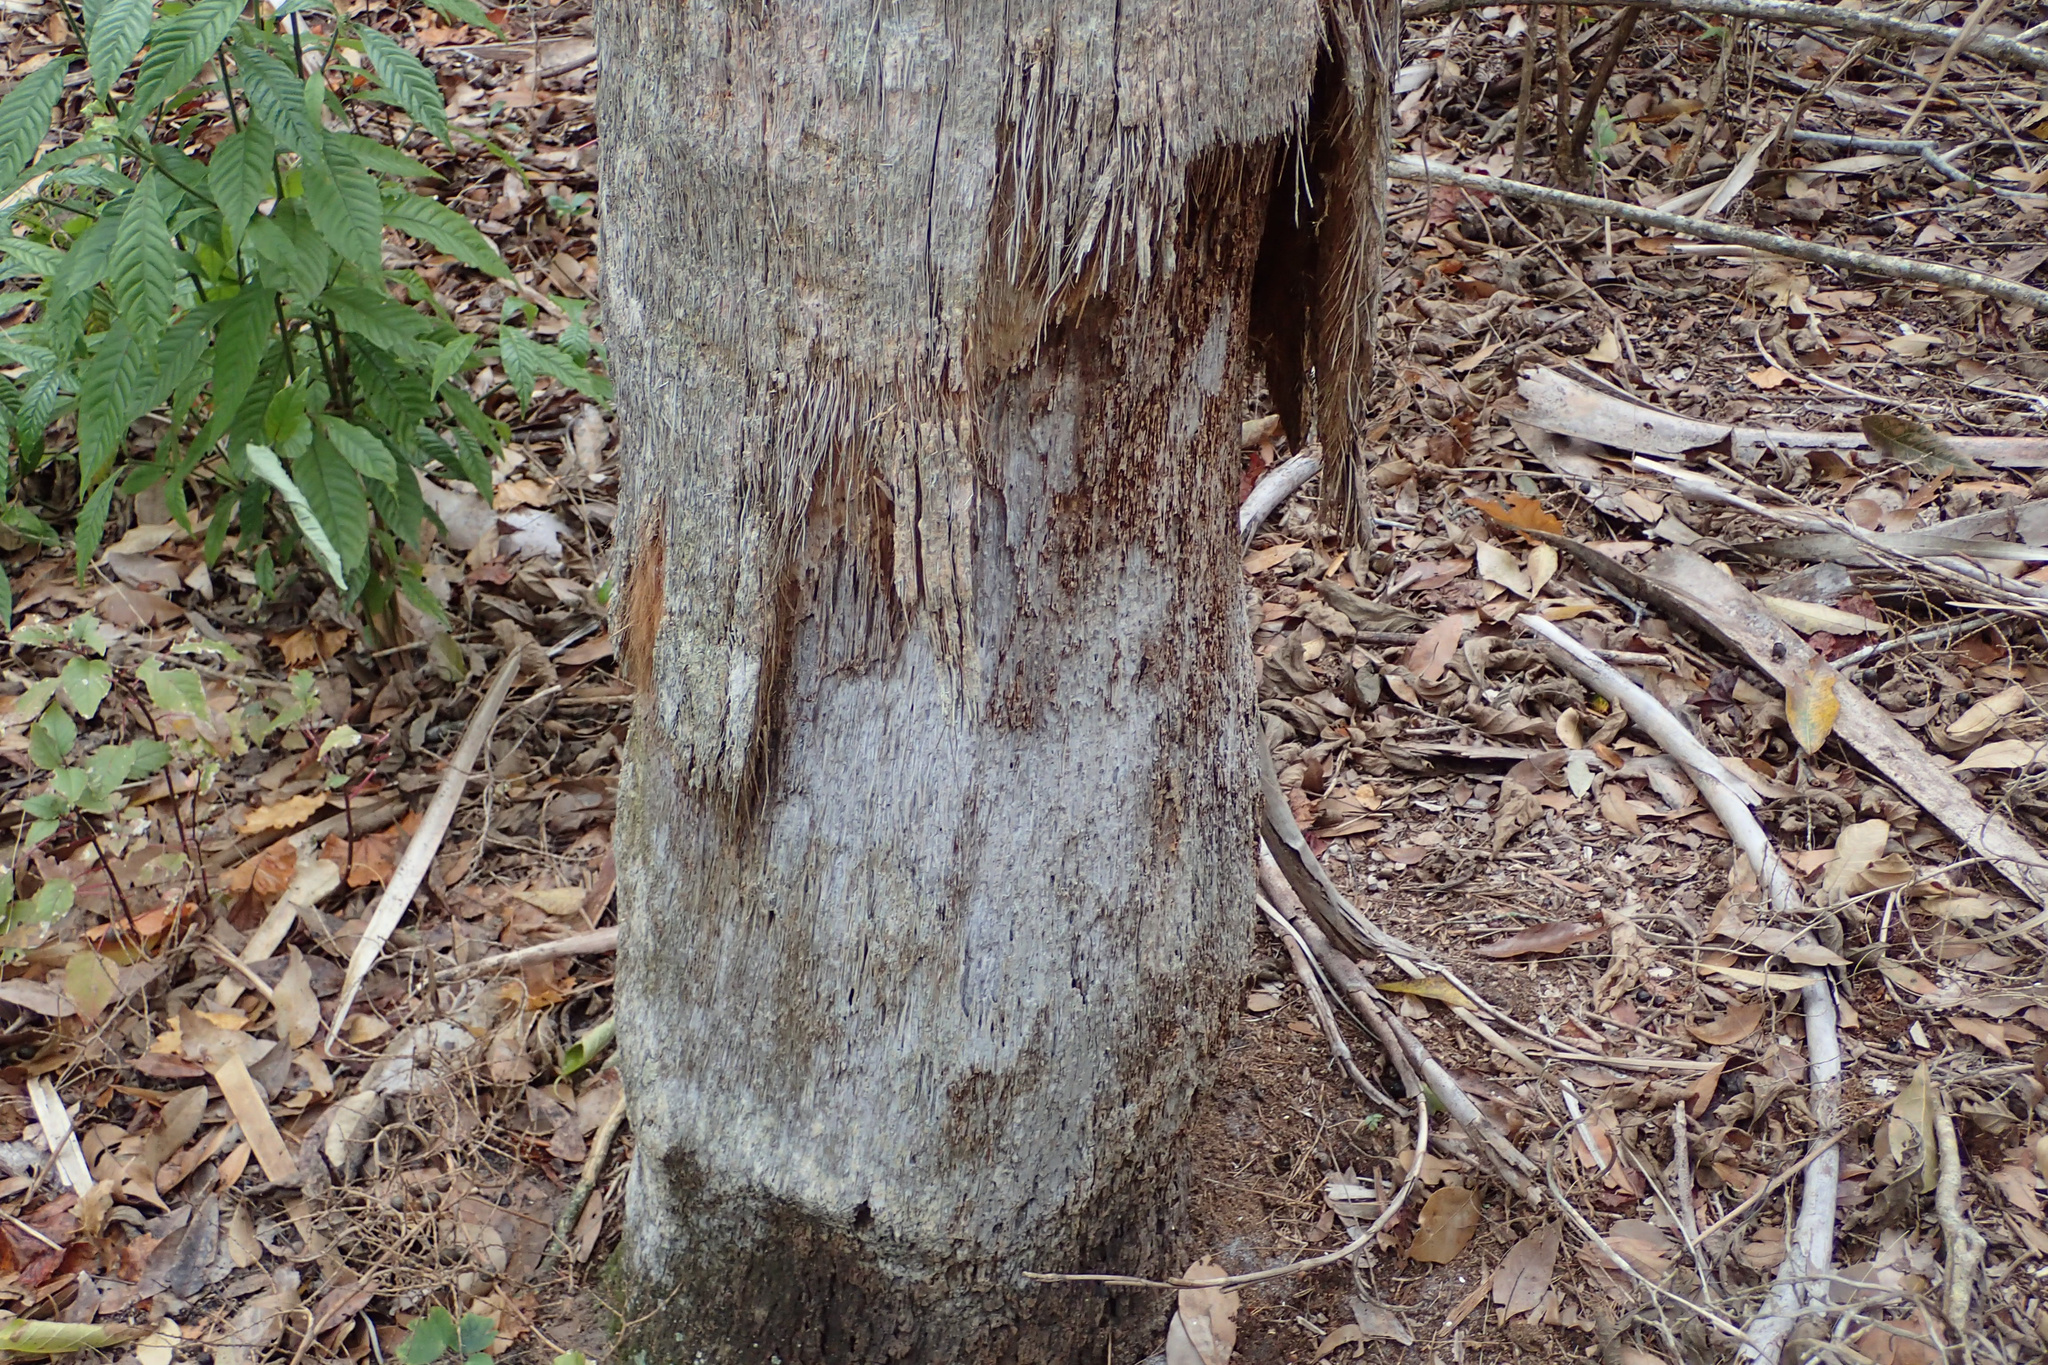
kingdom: Plantae
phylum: Tracheophyta
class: Liliopsida
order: Arecales
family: Arecaceae
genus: Sabal
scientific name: Sabal palmetto
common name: Blue palmetto
